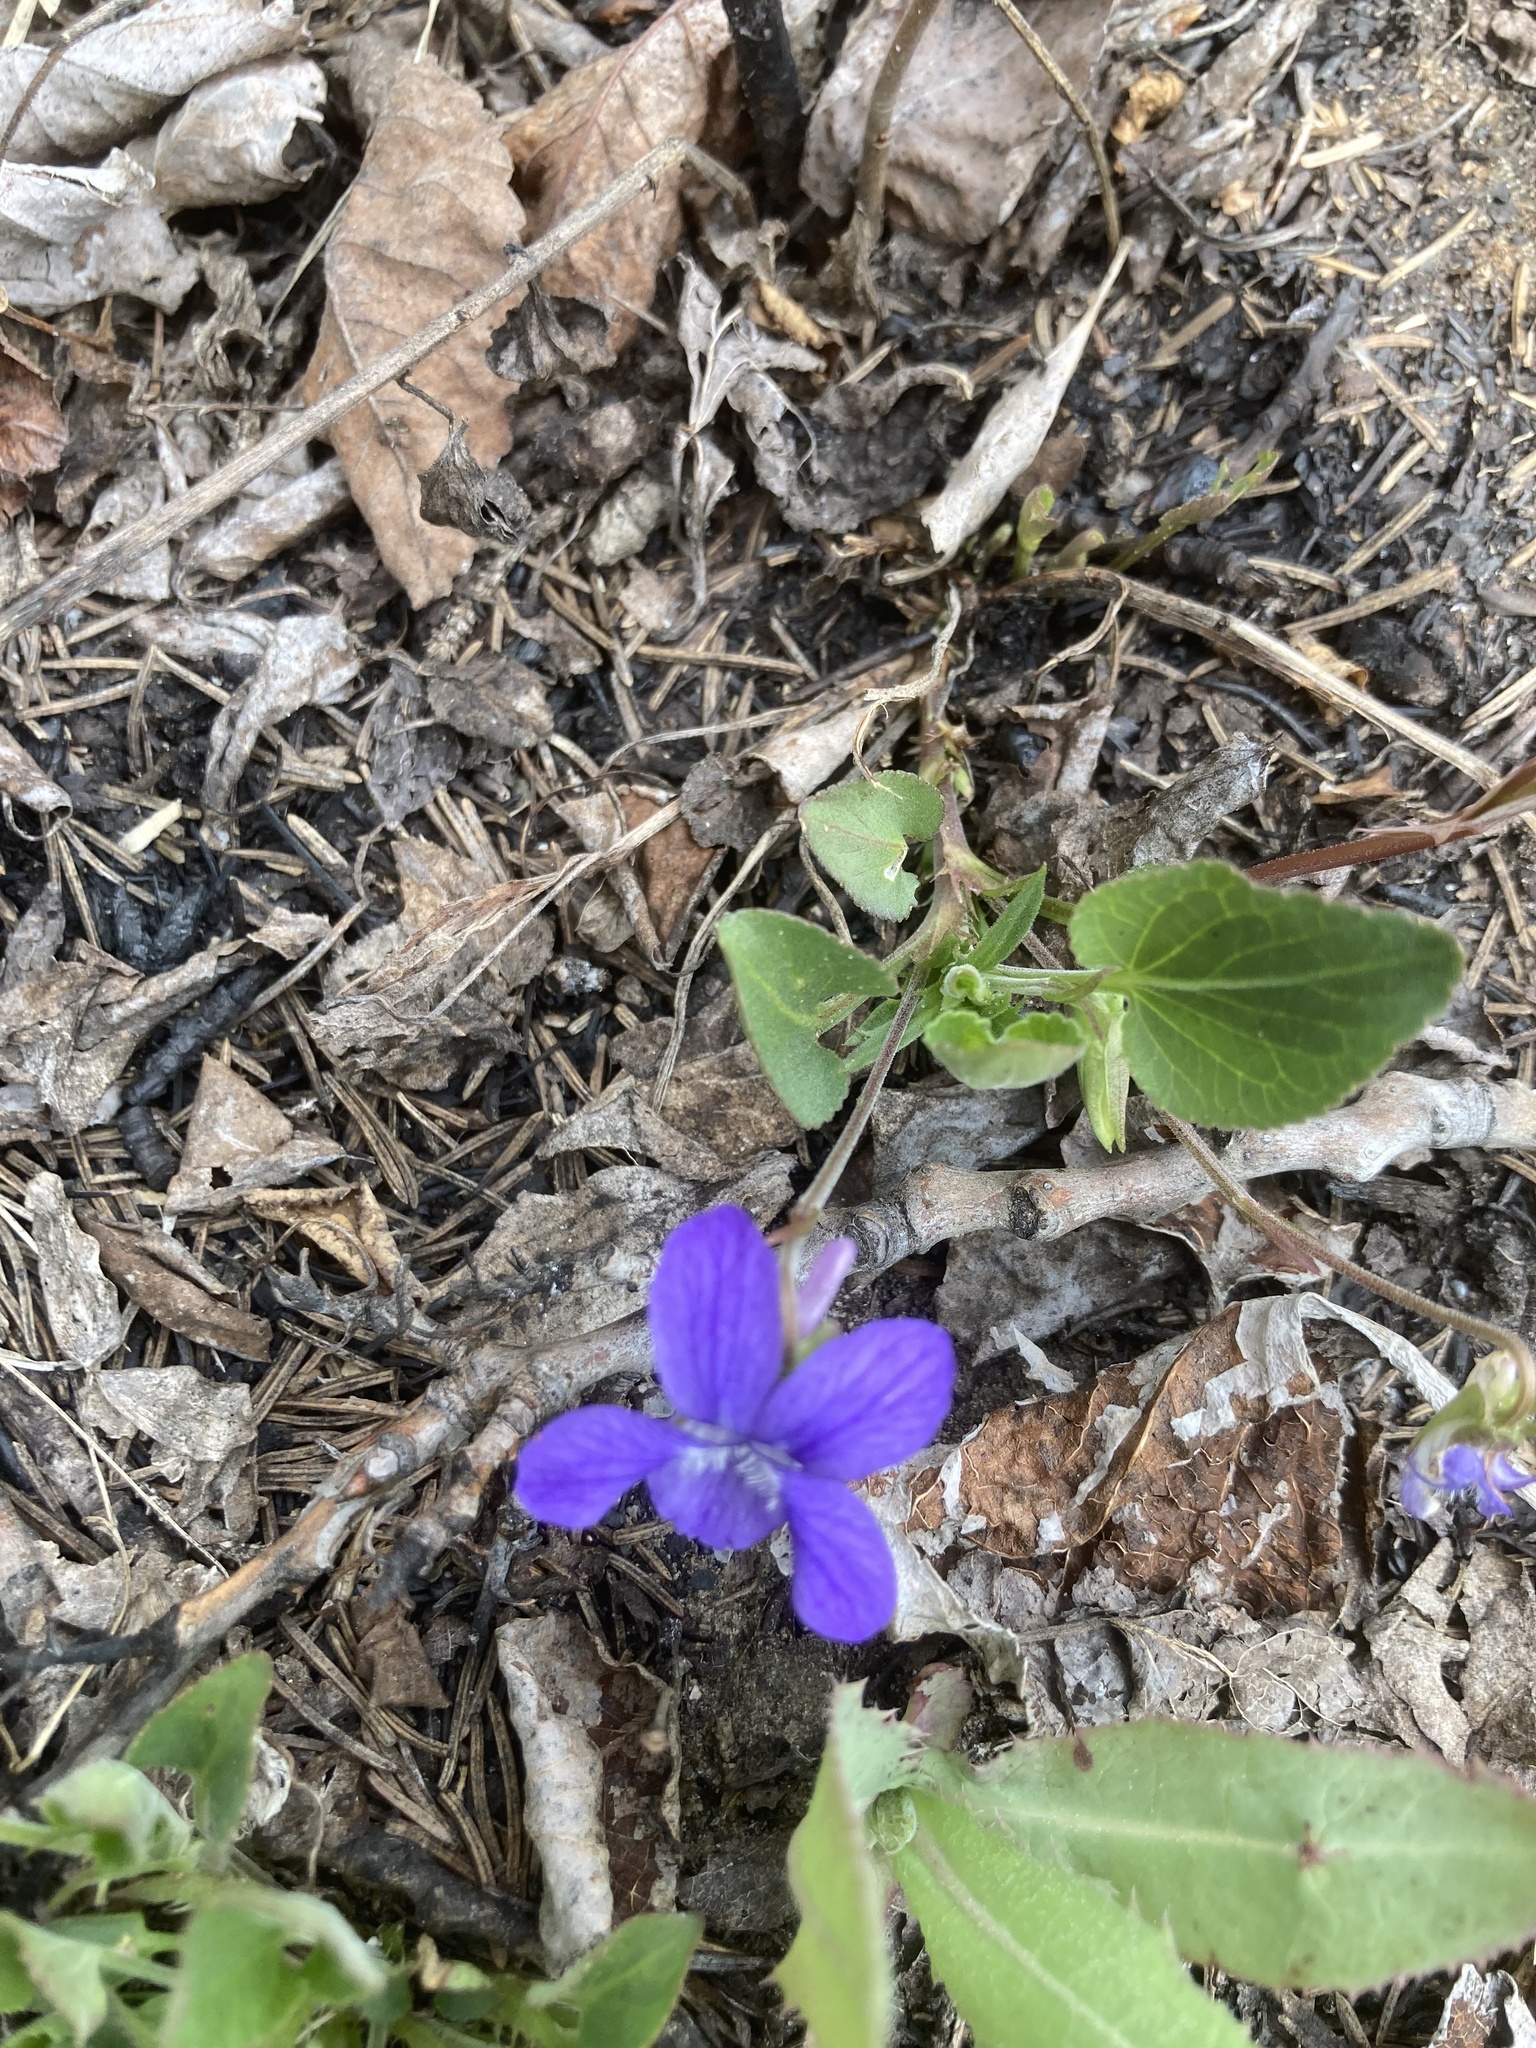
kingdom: Plantae
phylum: Tracheophyta
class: Magnoliopsida
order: Malpighiales
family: Violaceae
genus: Viola
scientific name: Viola adunca
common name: Sand violet
